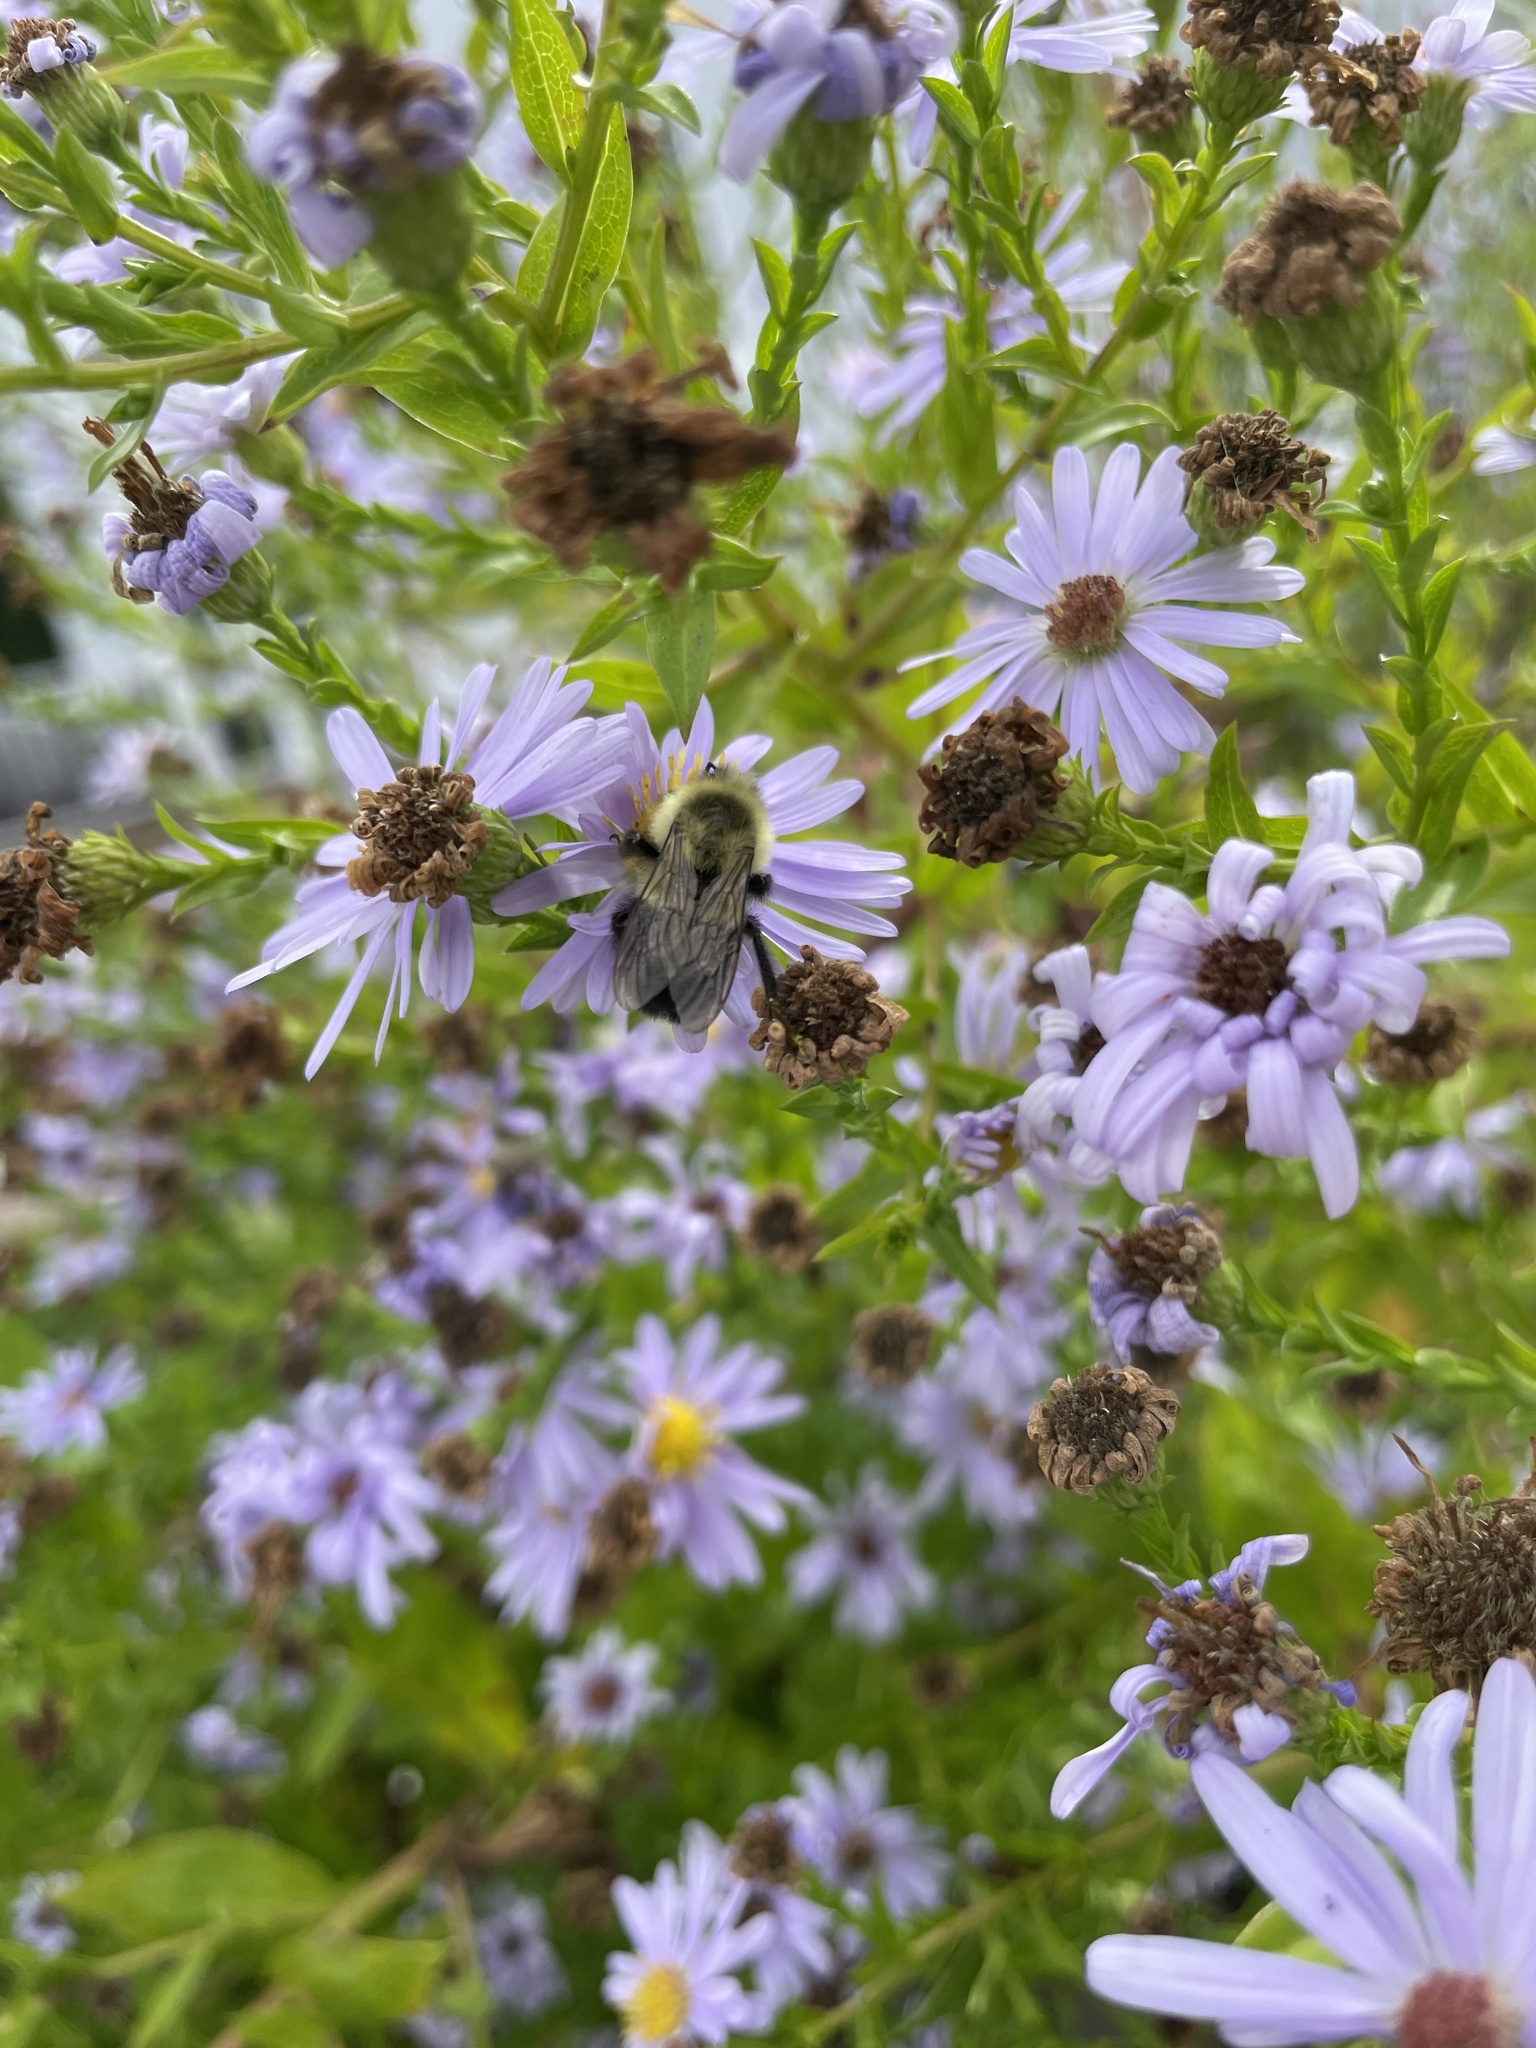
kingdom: Animalia
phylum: Arthropoda
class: Insecta
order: Hymenoptera
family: Apidae
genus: Bombus
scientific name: Bombus impatiens
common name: Common eastern bumble bee
